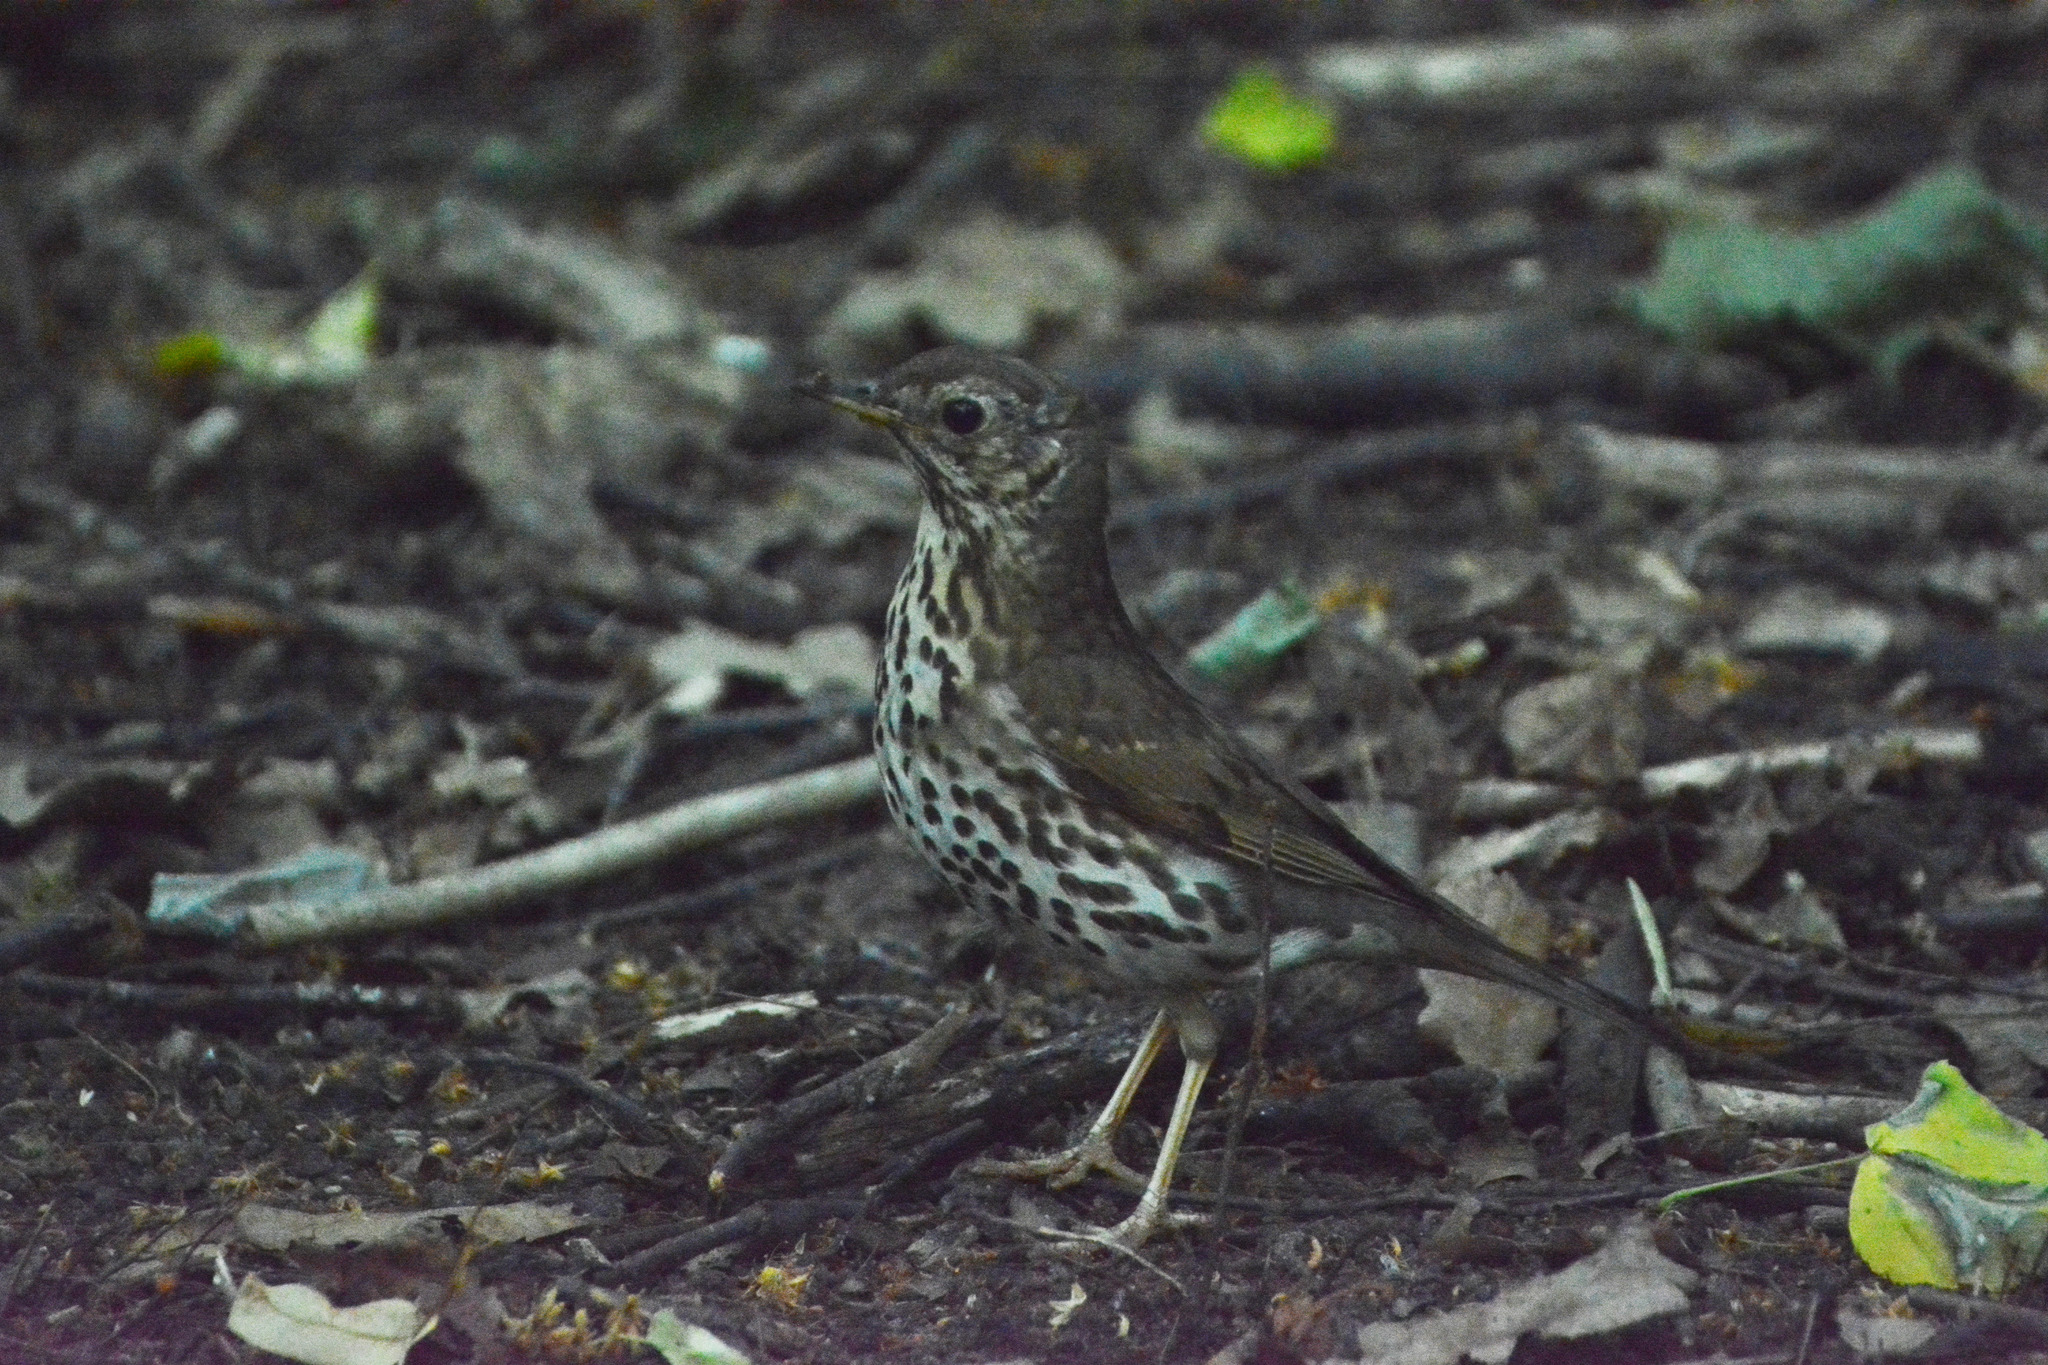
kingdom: Animalia
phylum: Chordata
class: Aves
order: Passeriformes
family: Turdidae
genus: Turdus
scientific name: Turdus philomelos
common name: Song thrush
